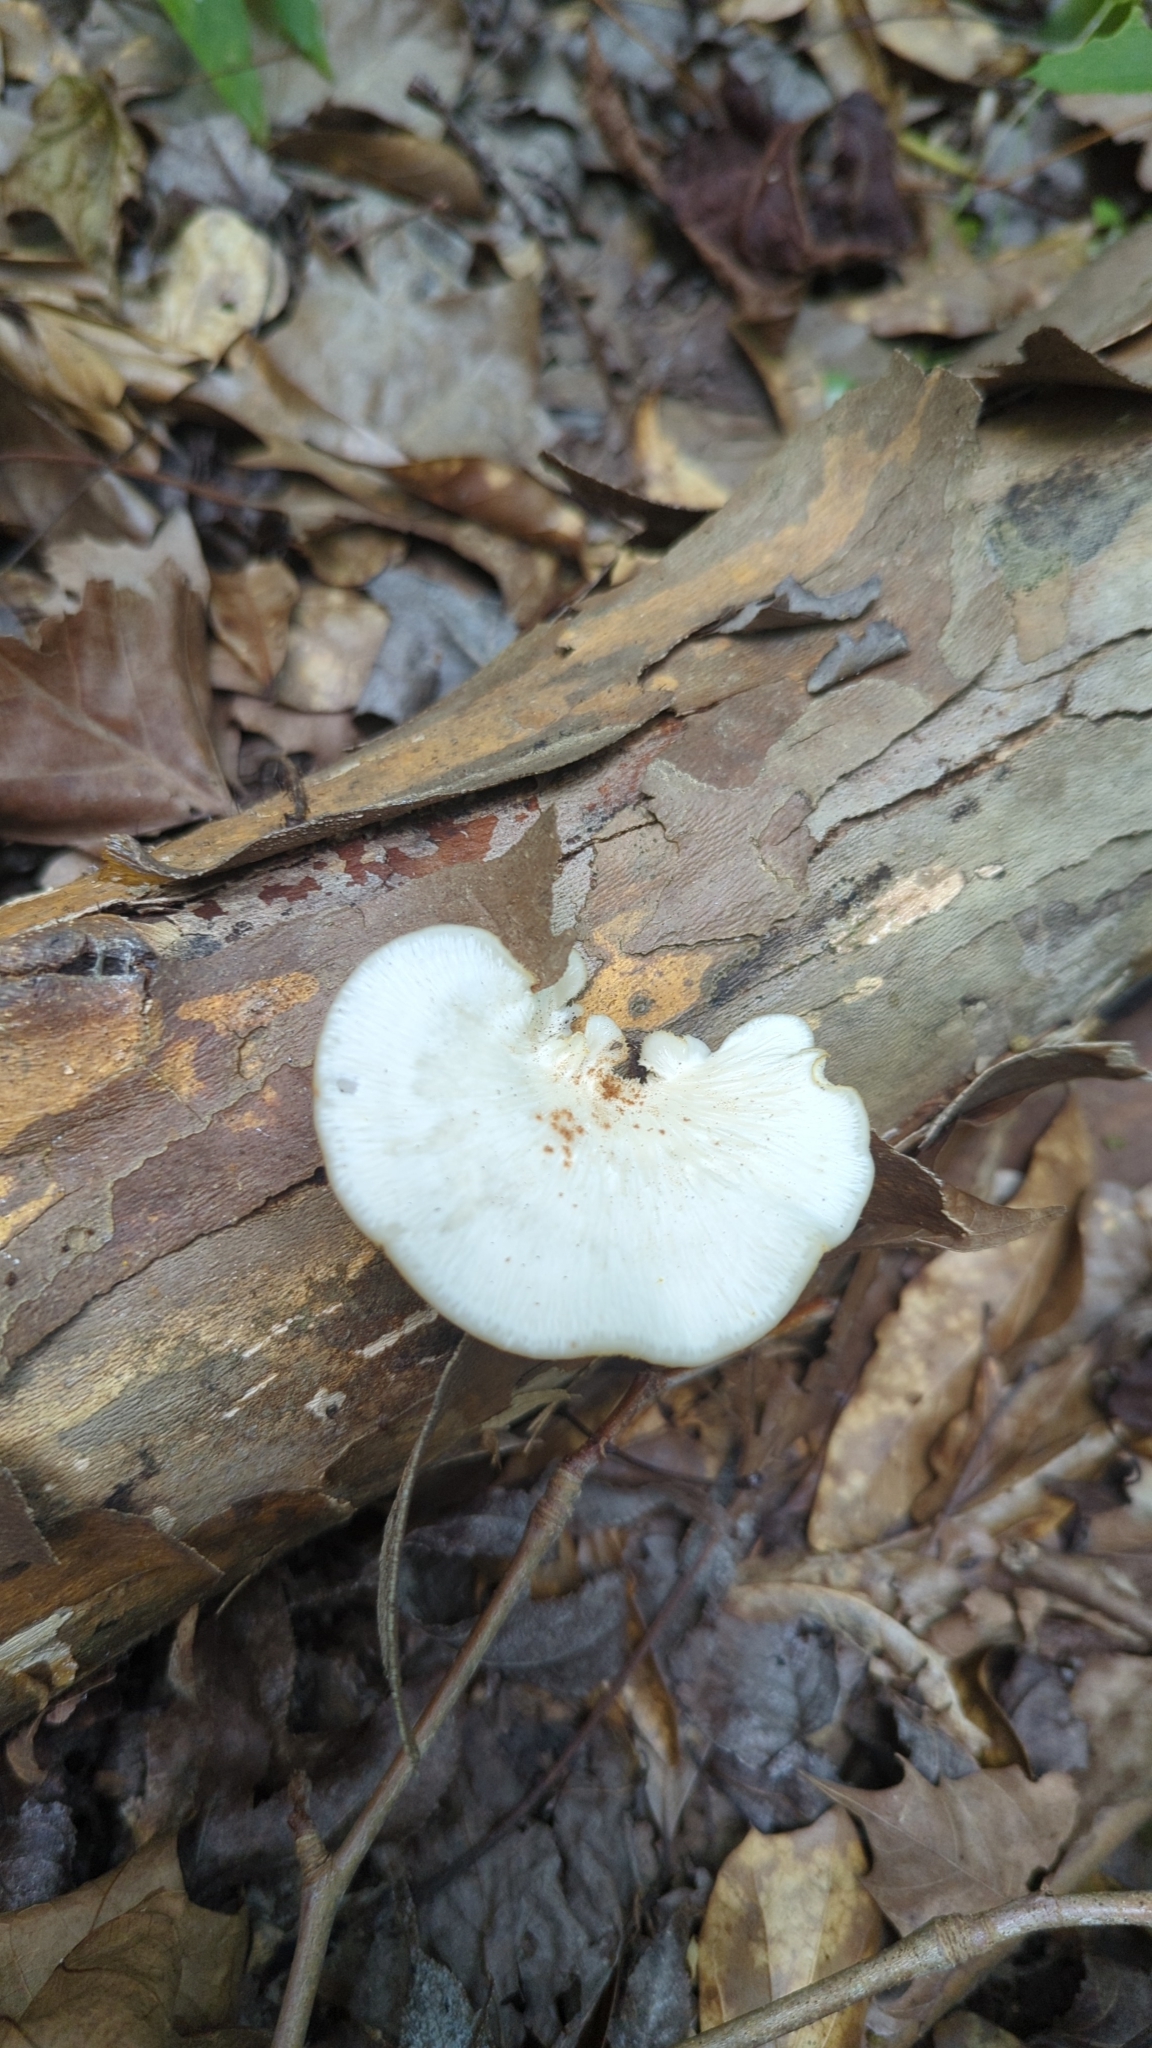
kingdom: Fungi
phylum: Basidiomycota
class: Agaricomycetes
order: Polyporales
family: Polyporaceae
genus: Favolus
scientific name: Favolus tenuiculus
